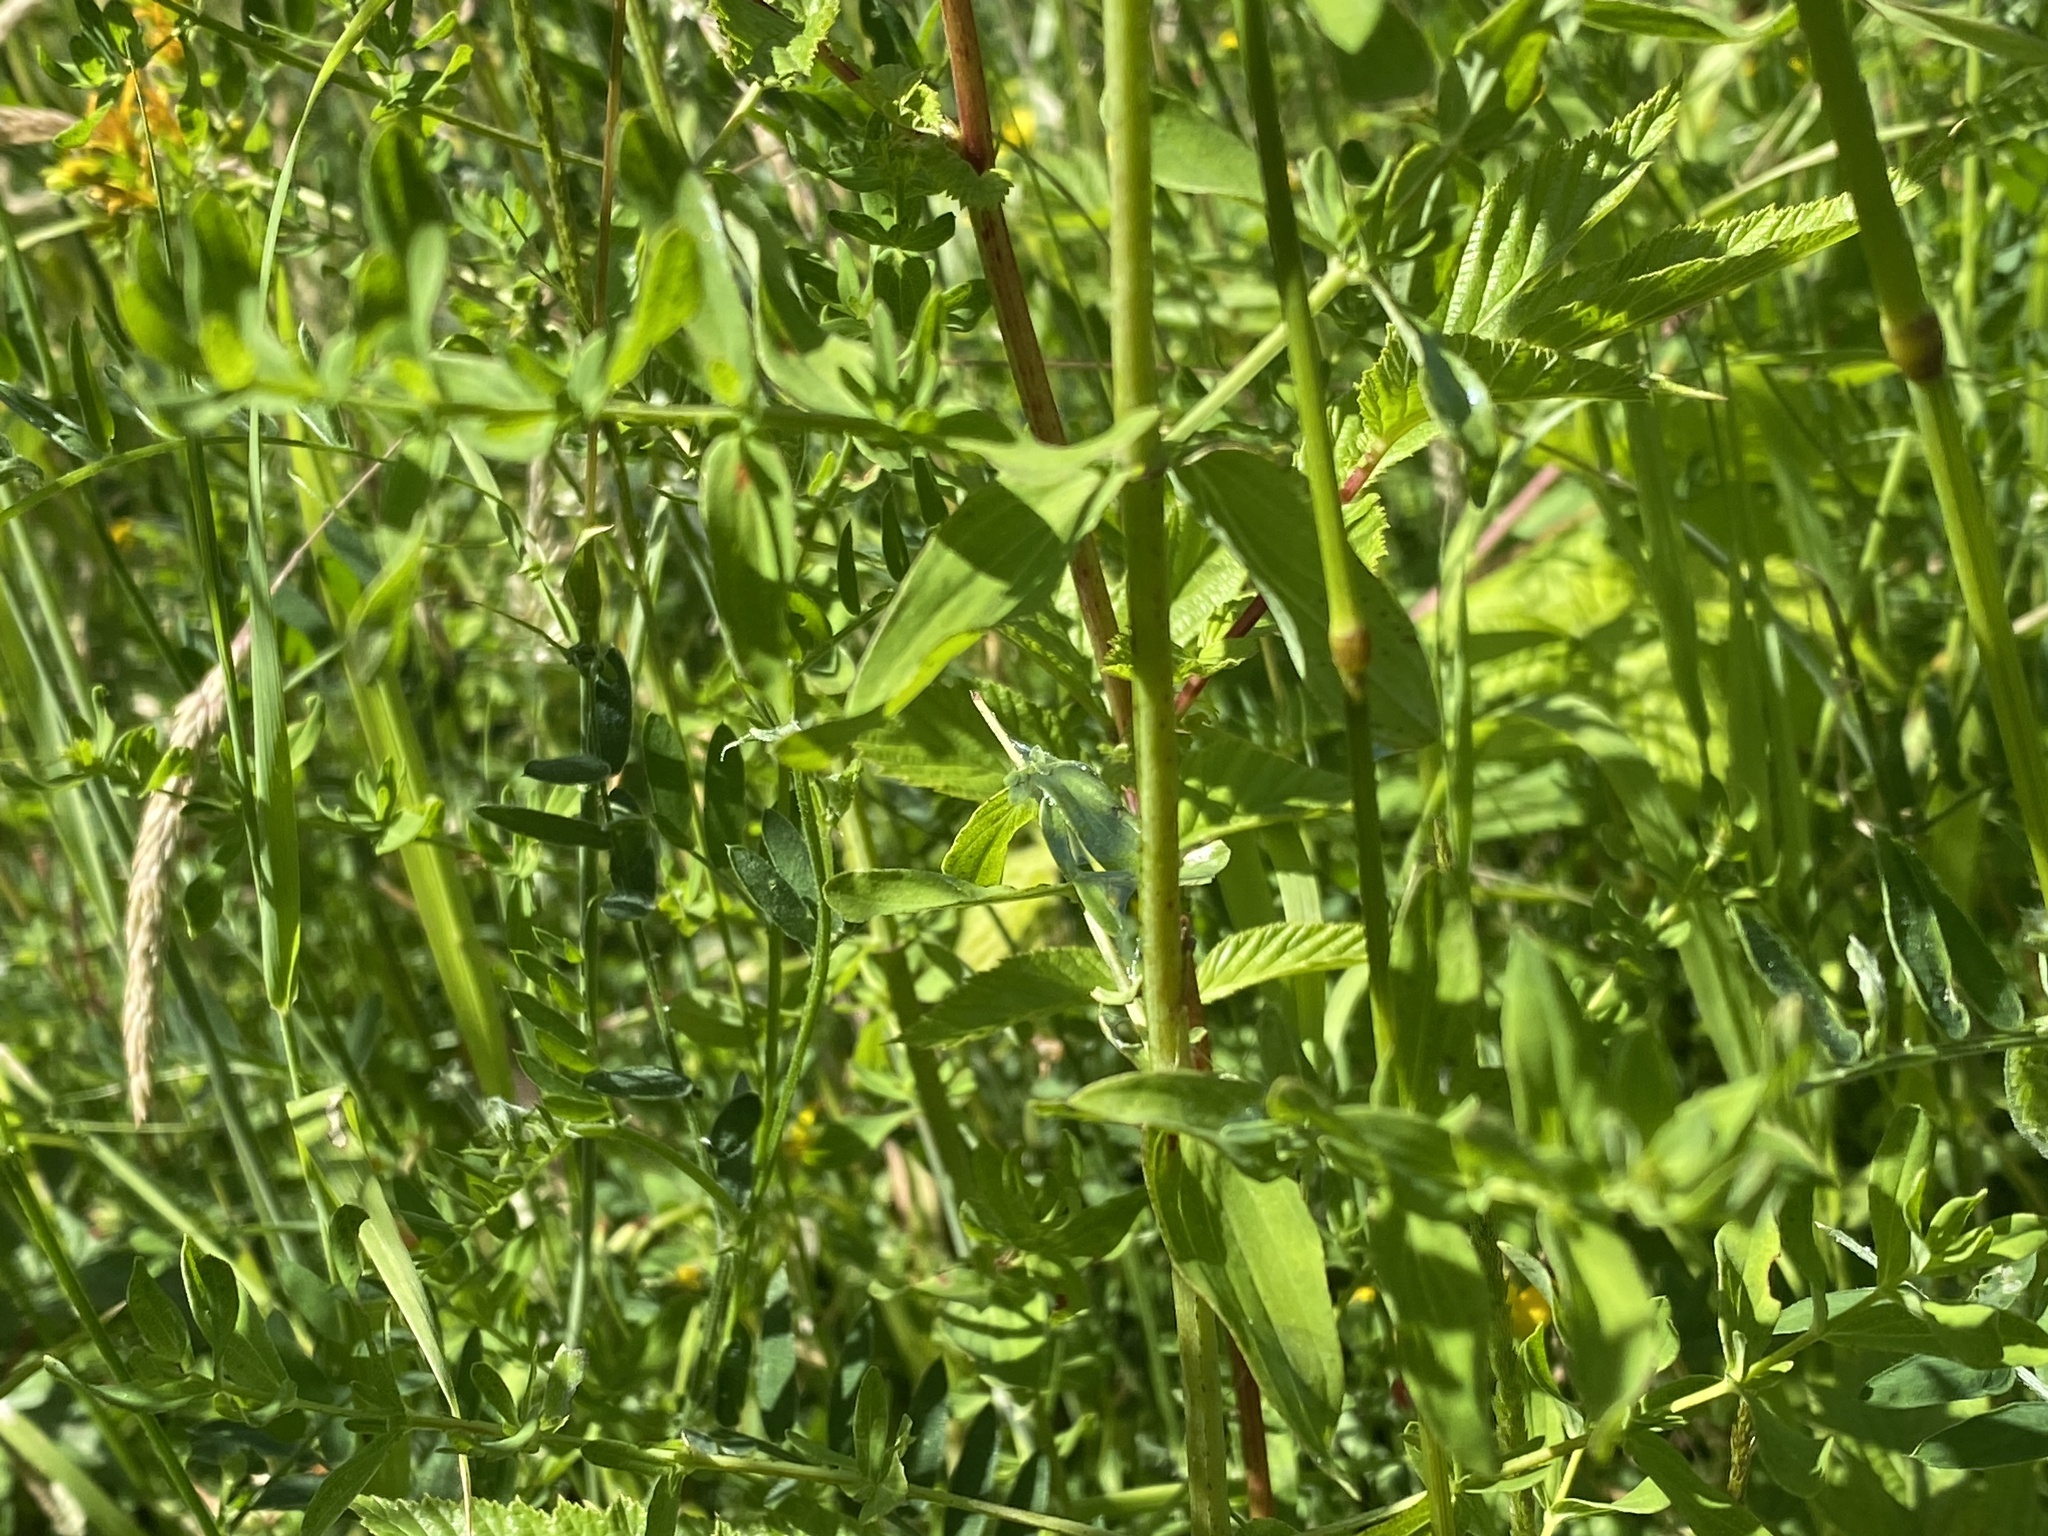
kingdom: Plantae
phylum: Tracheophyta
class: Magnoliopsida
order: Malpighiales
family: Hypericaceae
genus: Hypericum
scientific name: Hypericum perforatum
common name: Common st. johnswort
